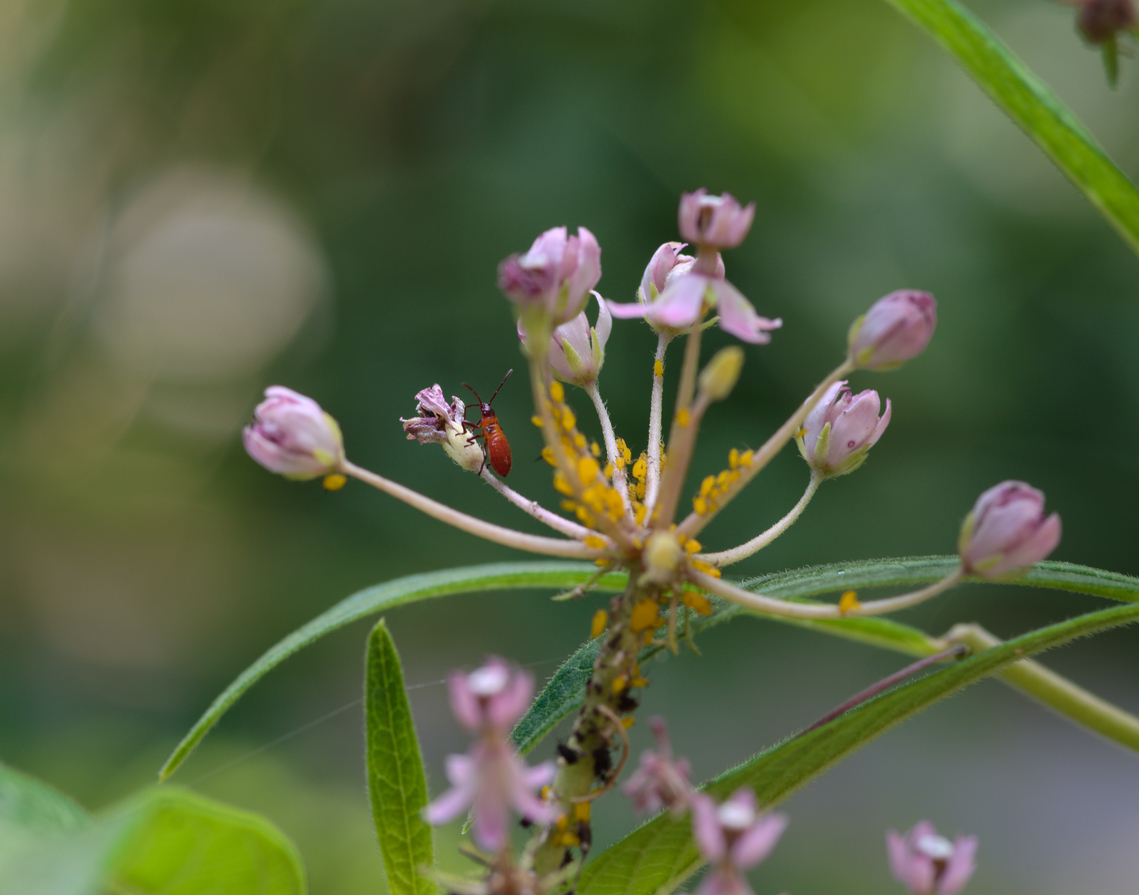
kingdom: Animalia
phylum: Arthropoda
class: Insecta
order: Hemiptera
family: Lygaeidae
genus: Oncopeltus
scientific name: Oncopeltus fasciatus
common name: Large milkweed bug
